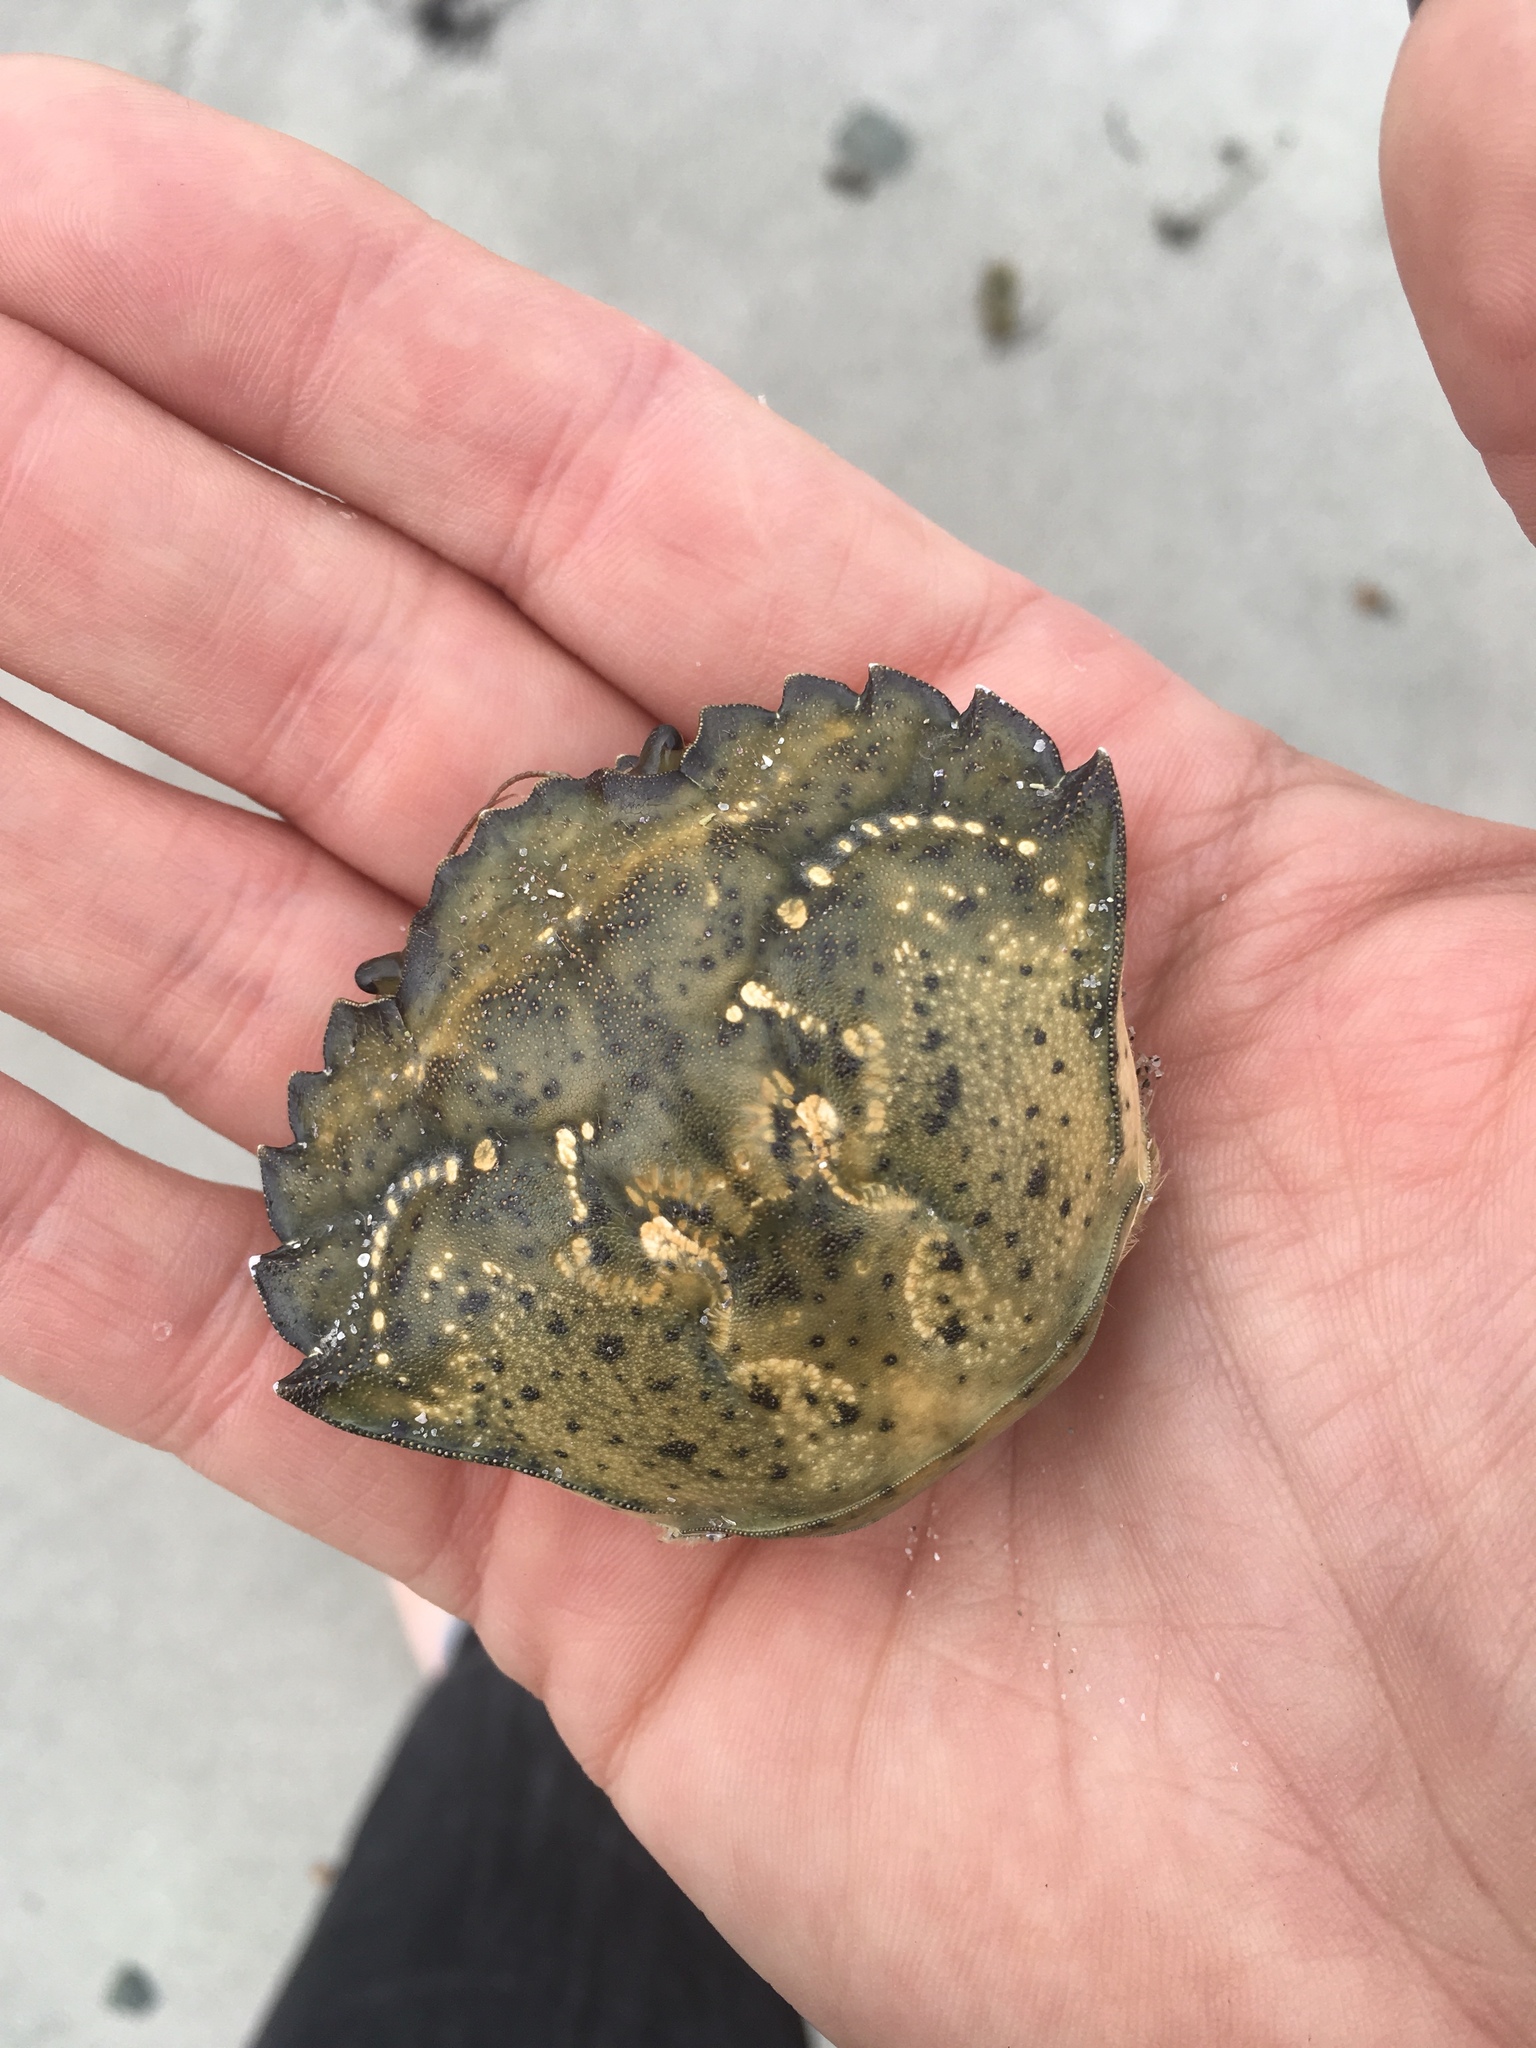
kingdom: Animalia
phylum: Arthropoda
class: Malacostraca
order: Decapoda
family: Carcinidae
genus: Carcinus
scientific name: Carcinus maenas
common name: European green crab
